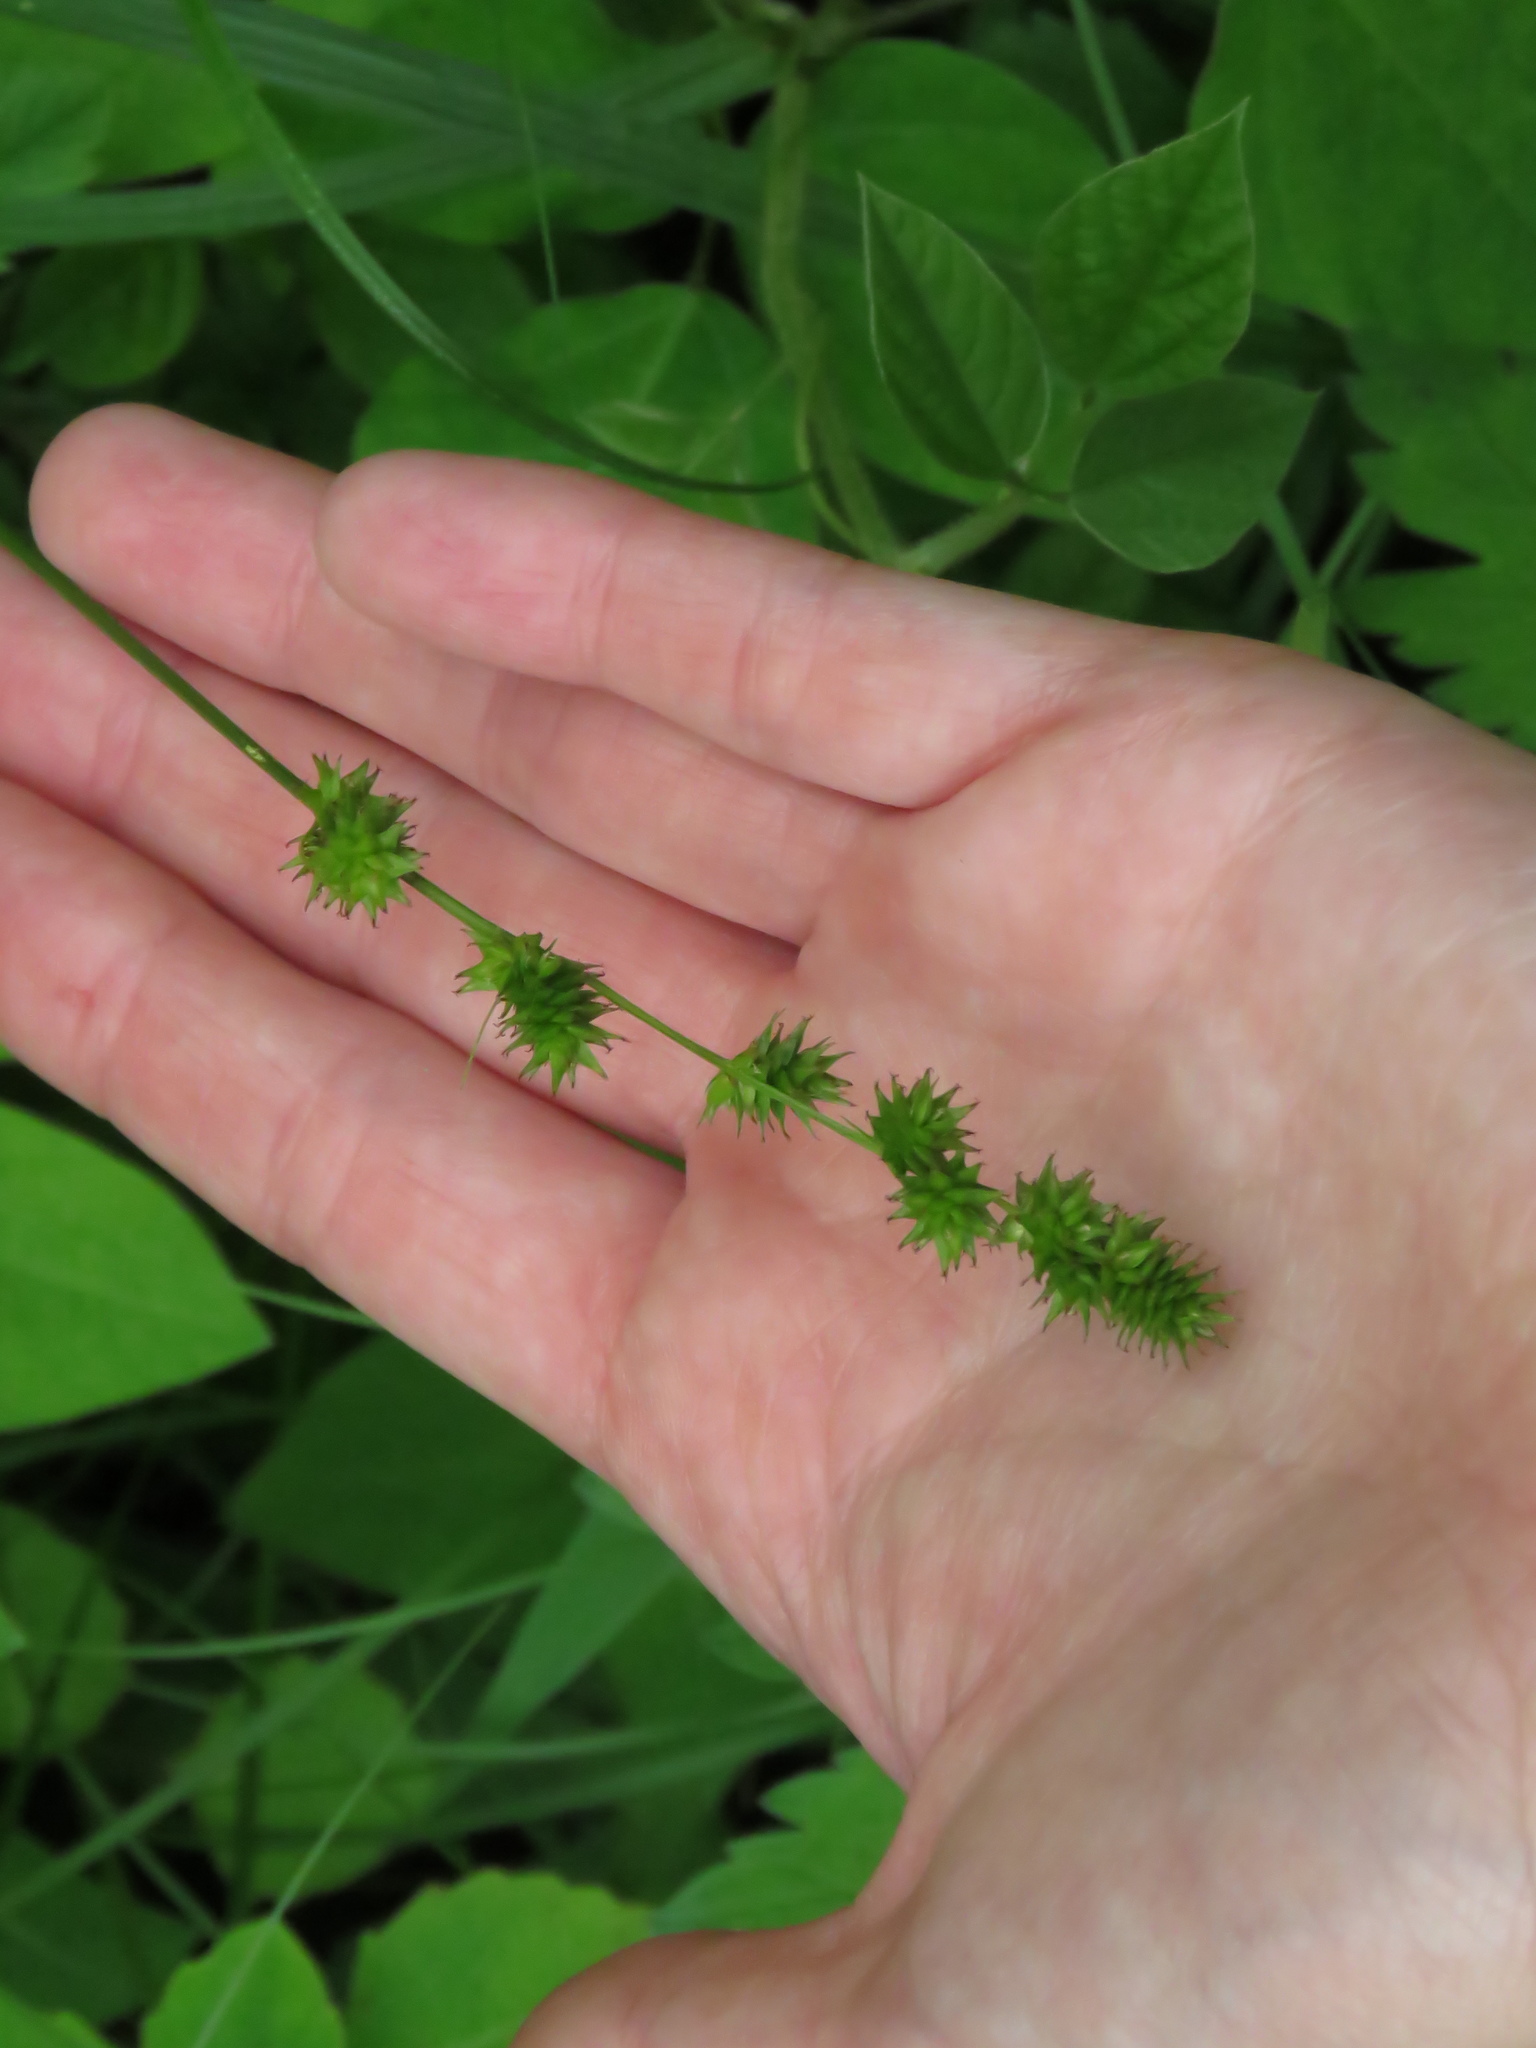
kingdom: Plantae
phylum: Tracheophyta
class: Liliopsida
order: Poales
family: Cyperaceae
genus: Carex
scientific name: Carex sparganioides
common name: Burreed sedge
